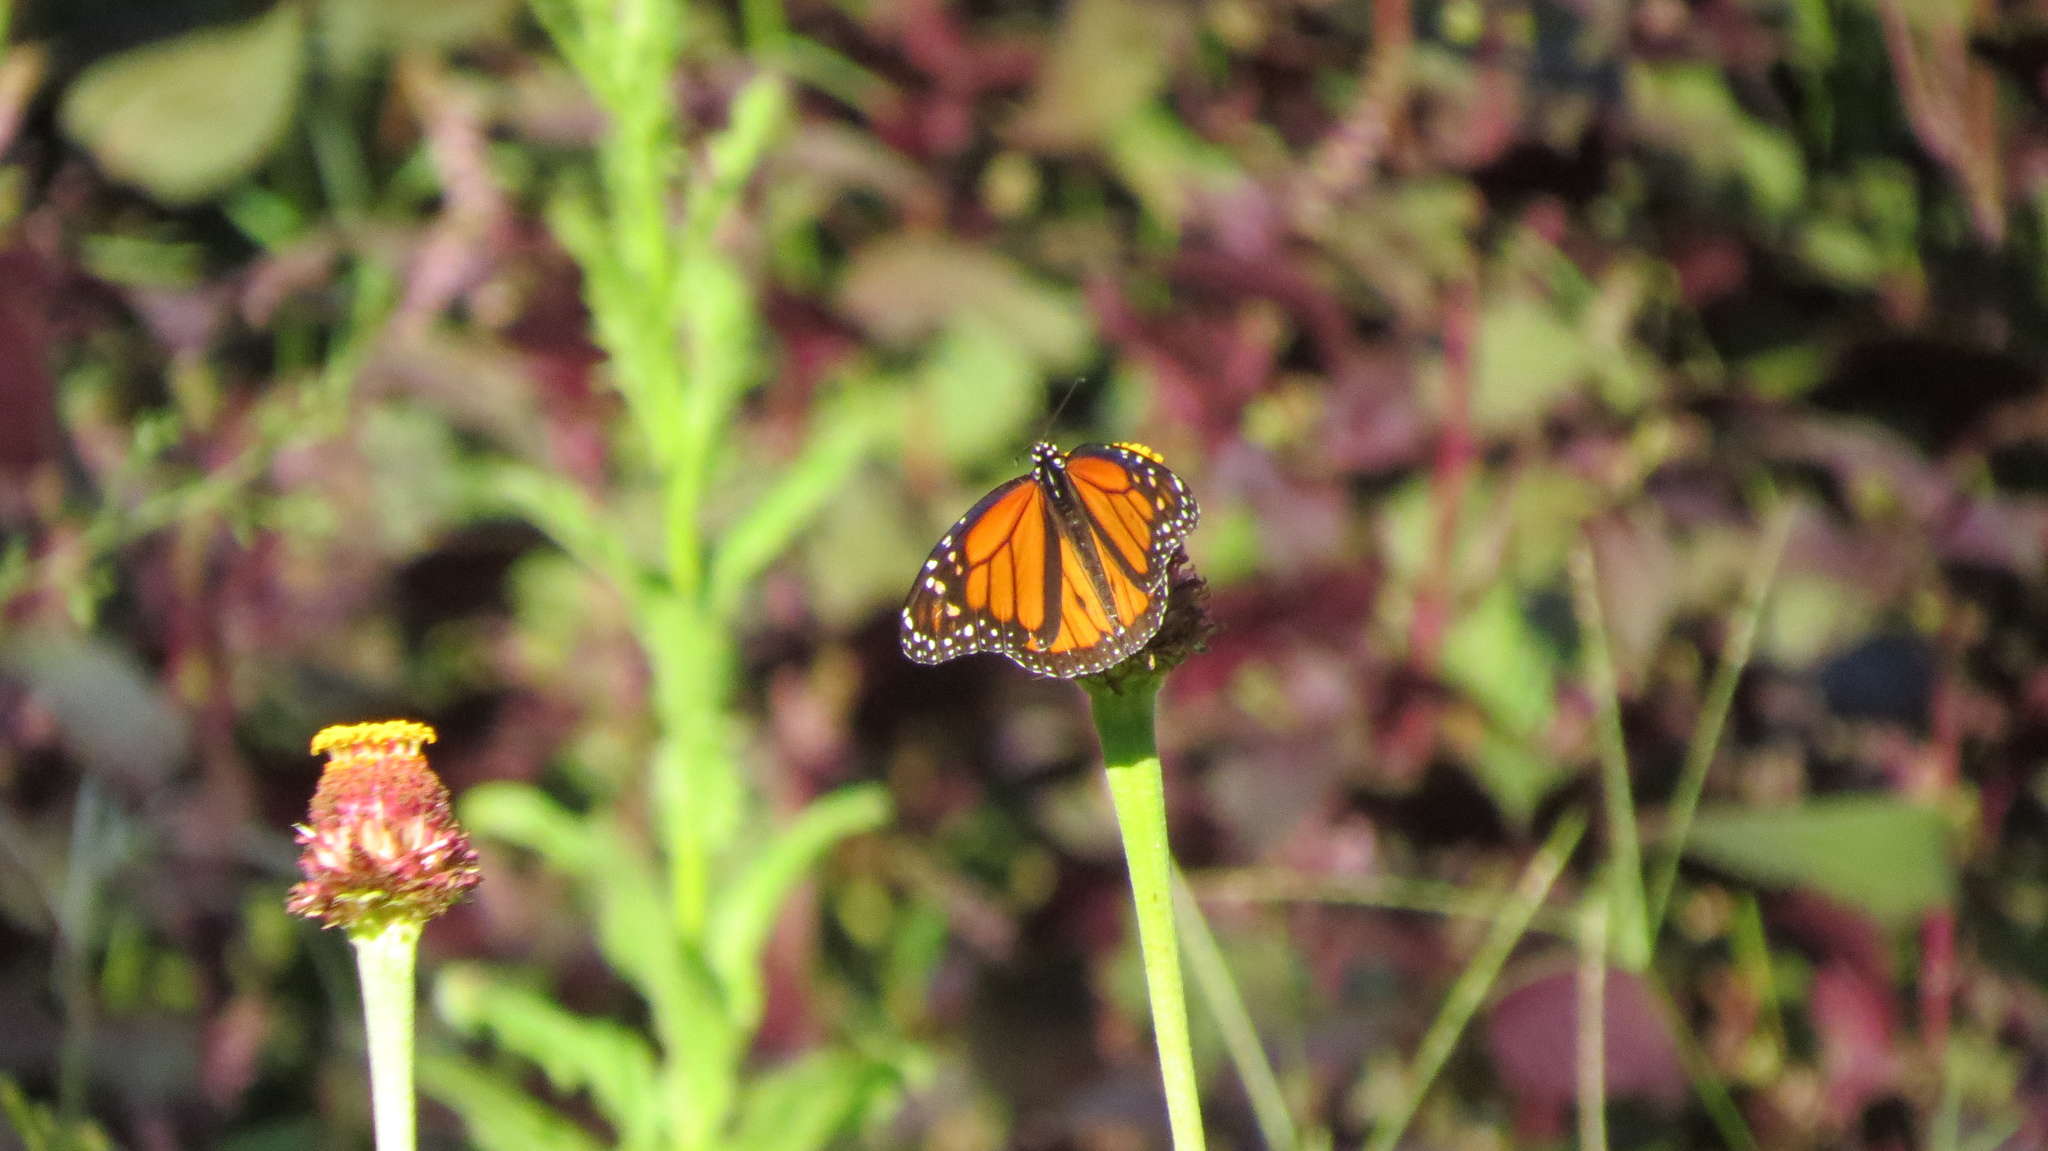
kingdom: Animalia
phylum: Arthropoda
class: Insecta
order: Lepidoptera
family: Nymphalidae
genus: Danaus
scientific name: Danaus plexippus
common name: Monarch
